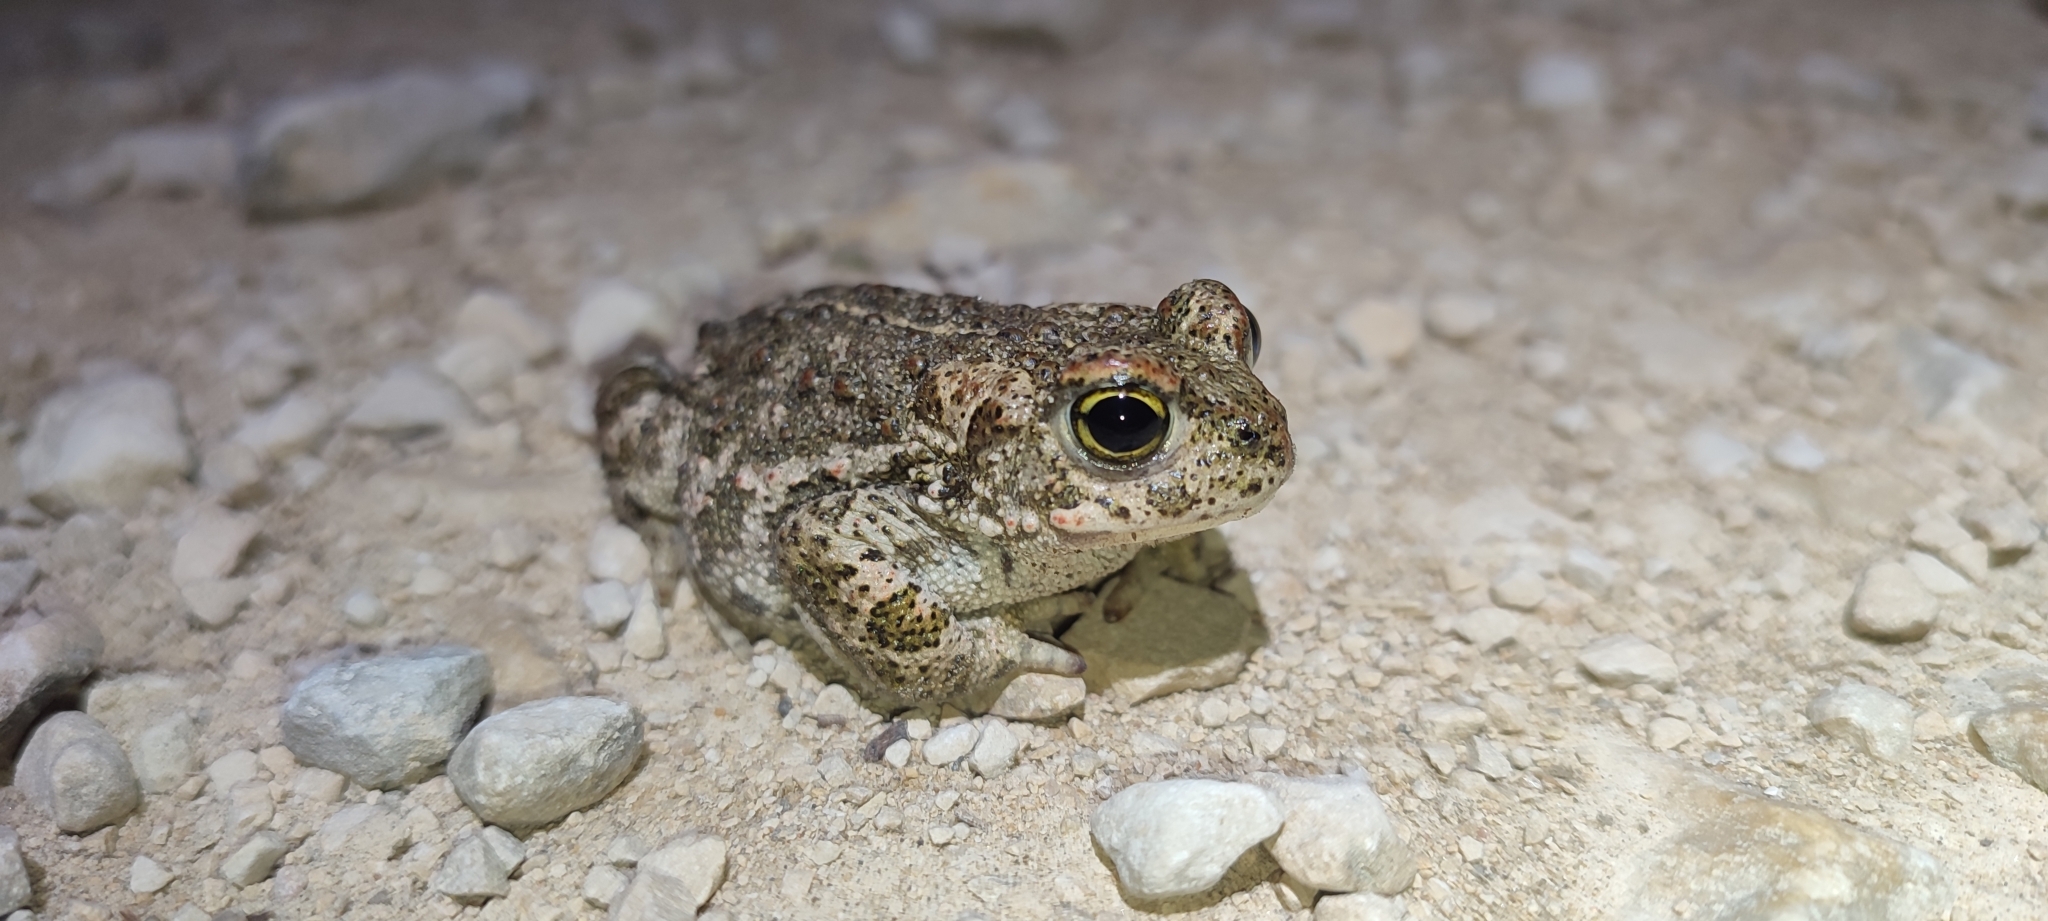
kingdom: Animalia
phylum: Chordata
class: Amphibia
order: Anura
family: Bufonidae
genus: Epidalea
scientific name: Epidalea calamita
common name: Natterjack toad
